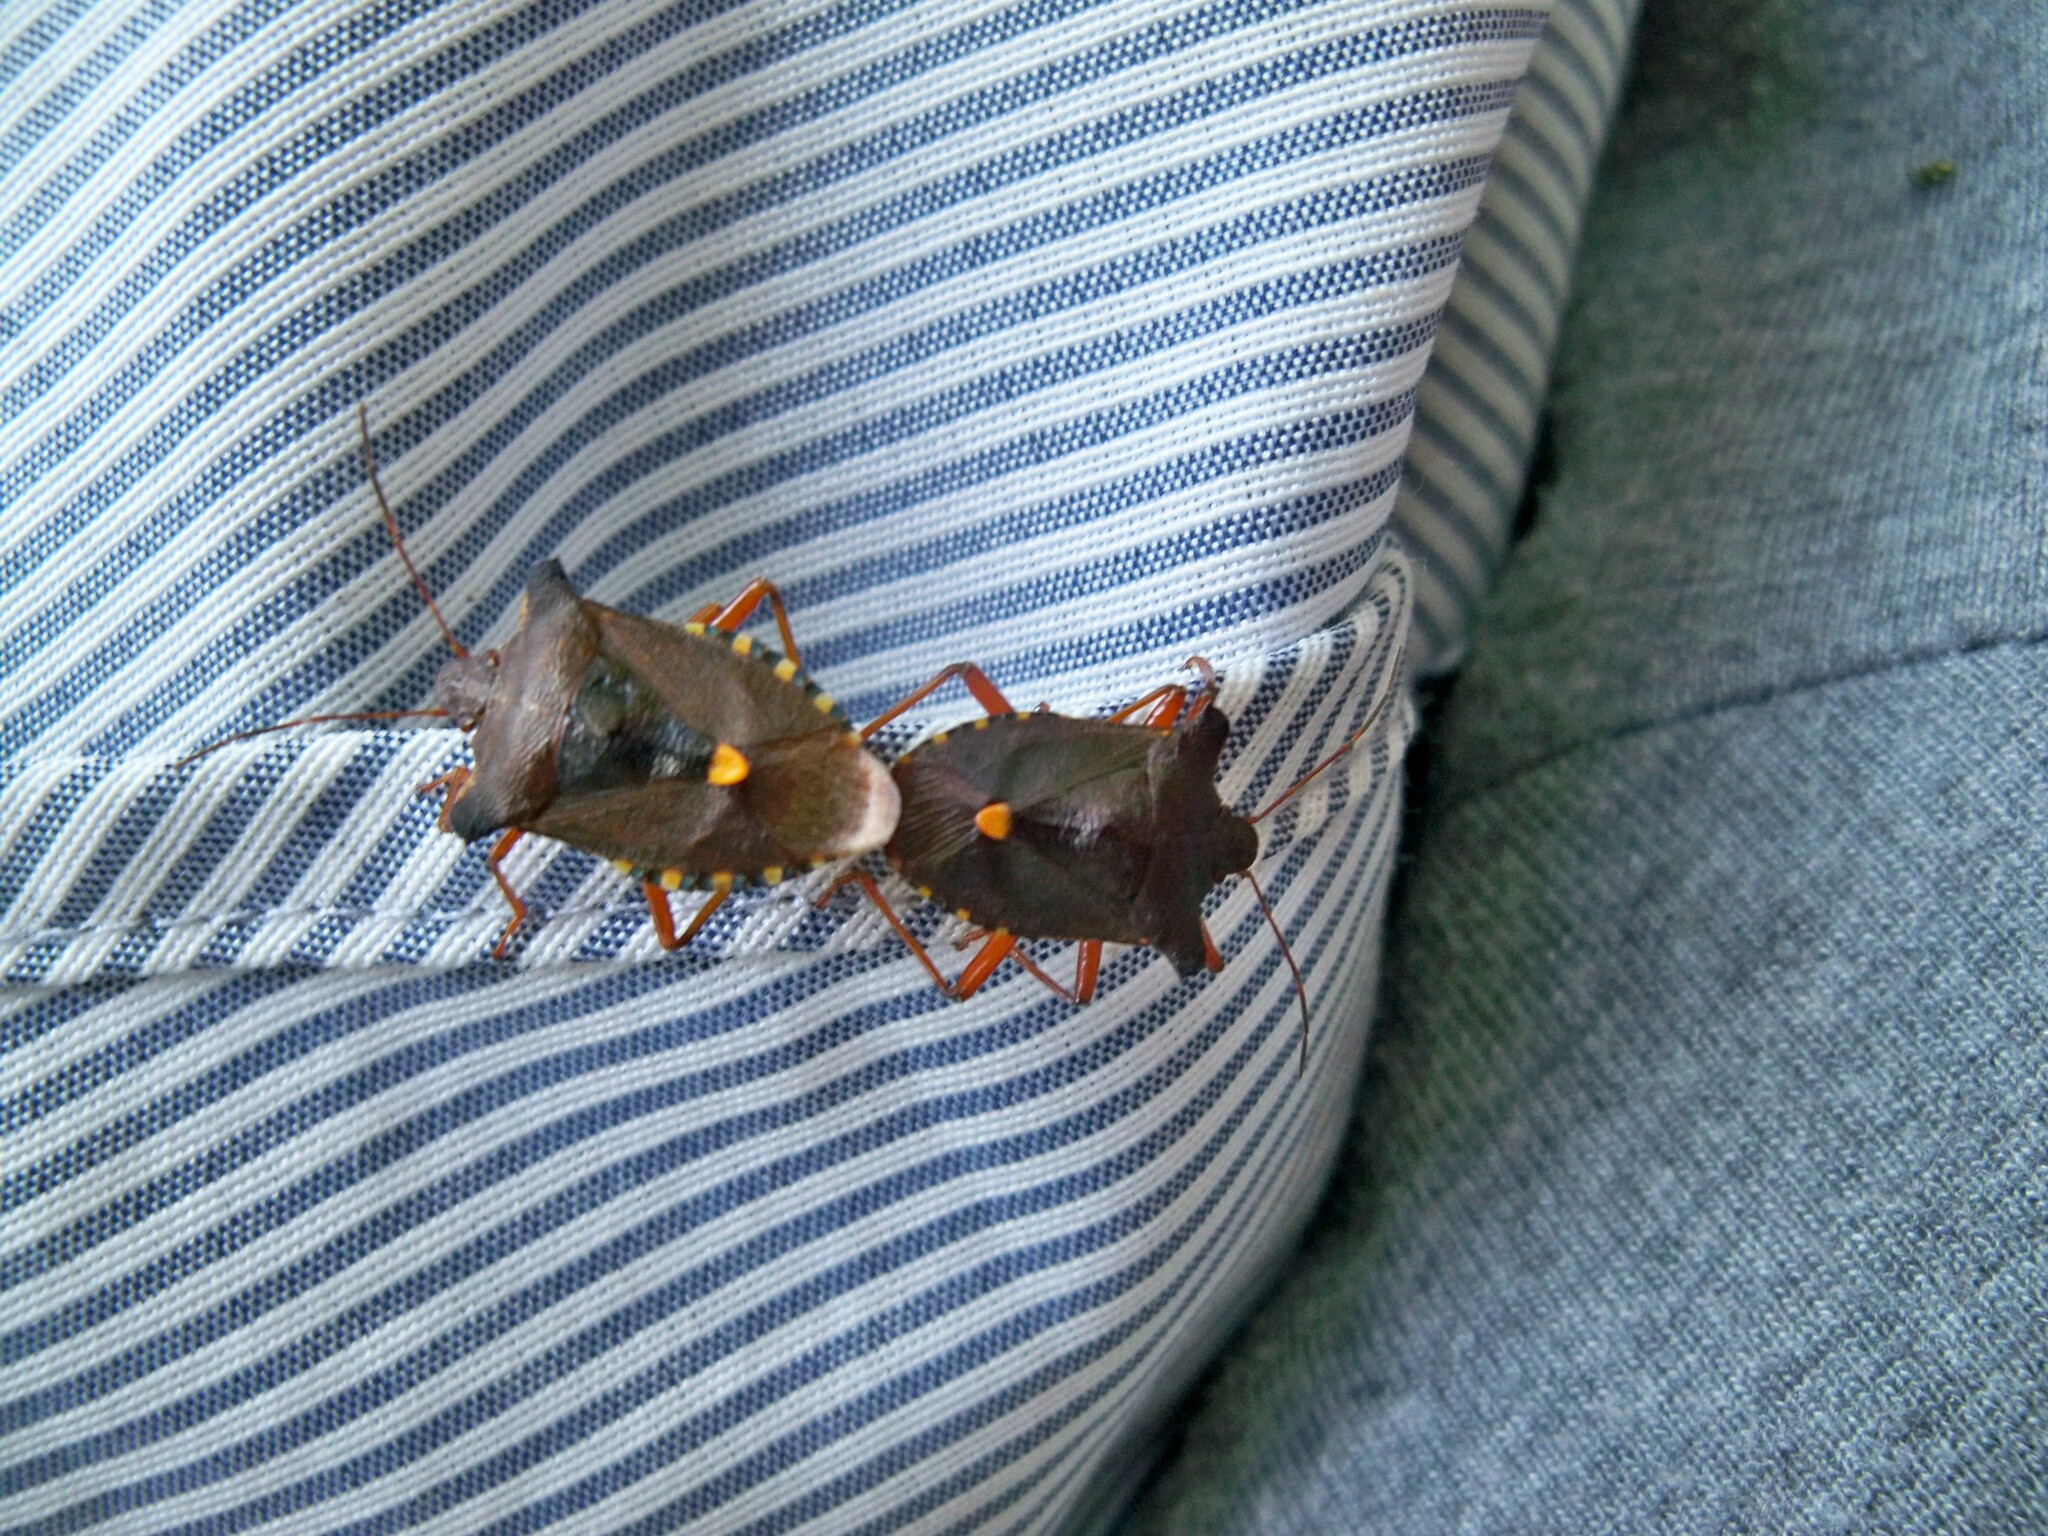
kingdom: Animalia
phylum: Arthropoda
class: Insecta
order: Hemiptera
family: Pentatomidae
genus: Pentatoma
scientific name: Pentatoma rufipes
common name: Forest bug
